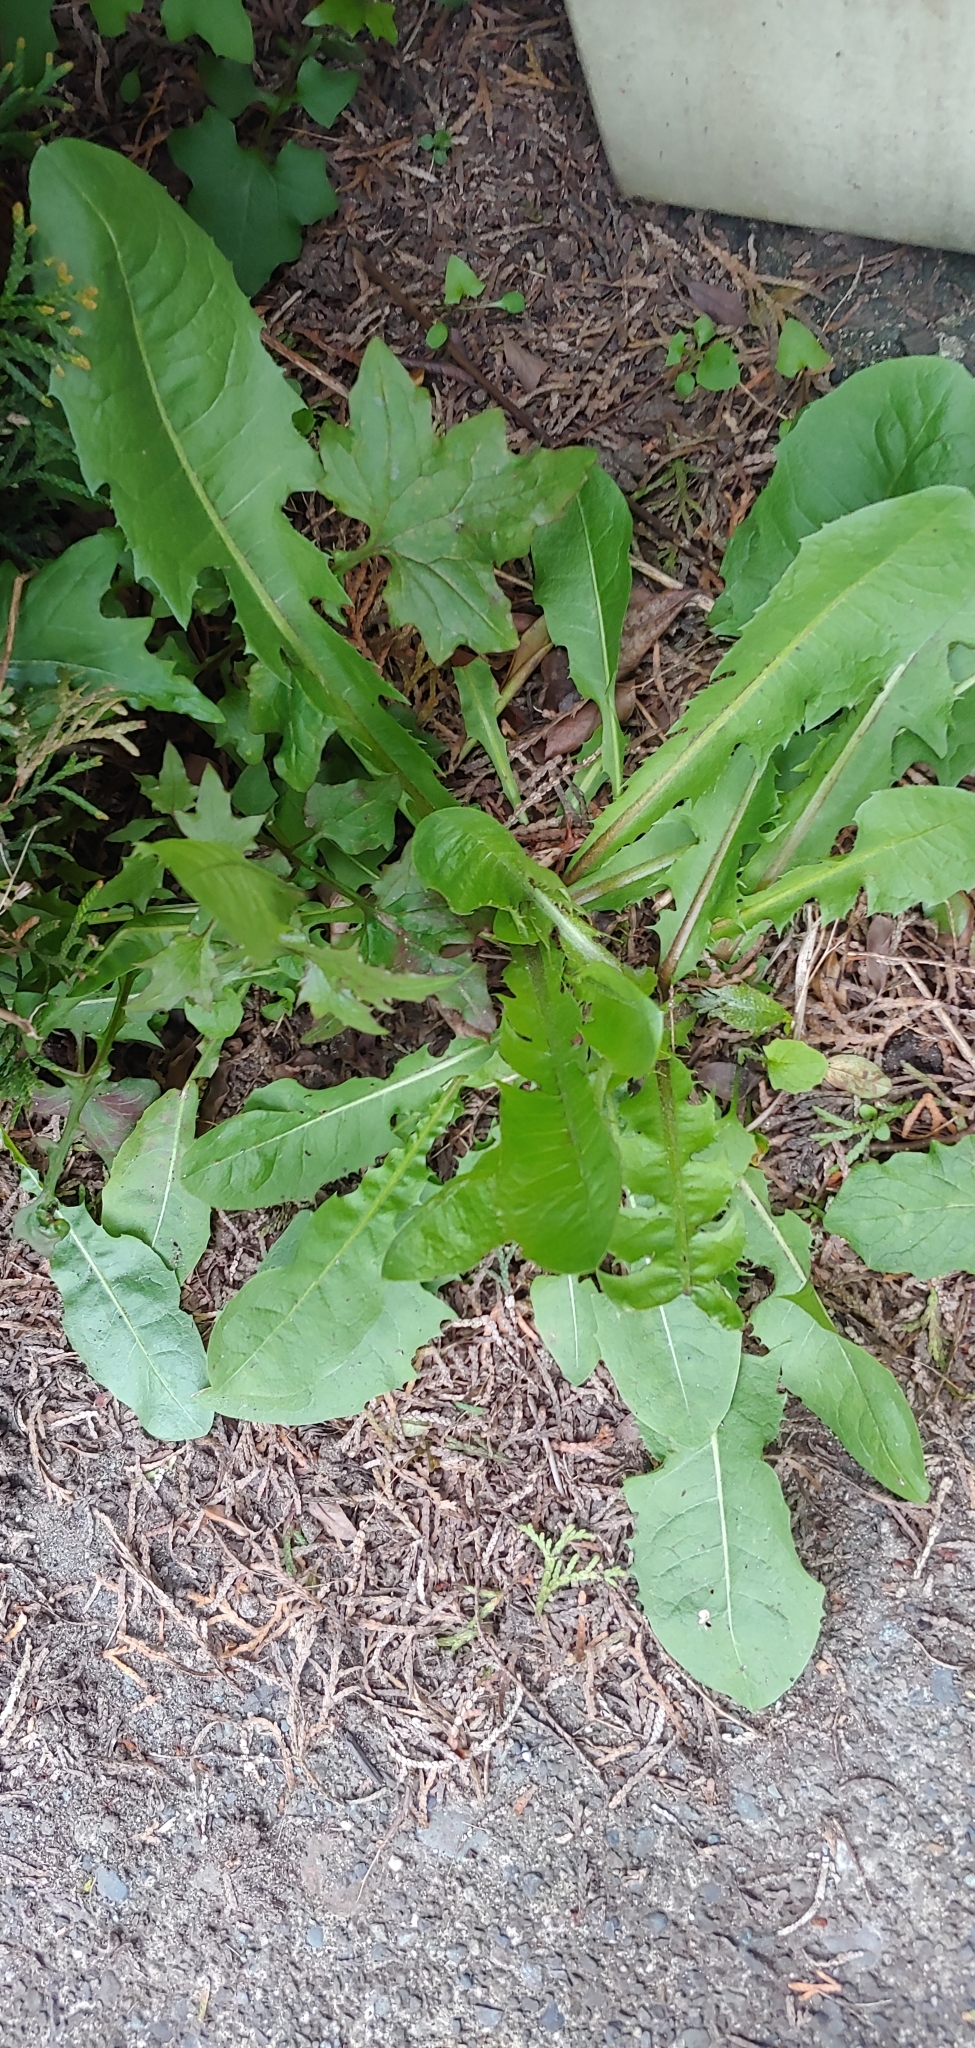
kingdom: Plantae
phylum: Tracheophyta
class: Magnoliopsida
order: Asterales
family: Asteraceae
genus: Taraxacum
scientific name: Taraxacum officinale
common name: Common dandelion
